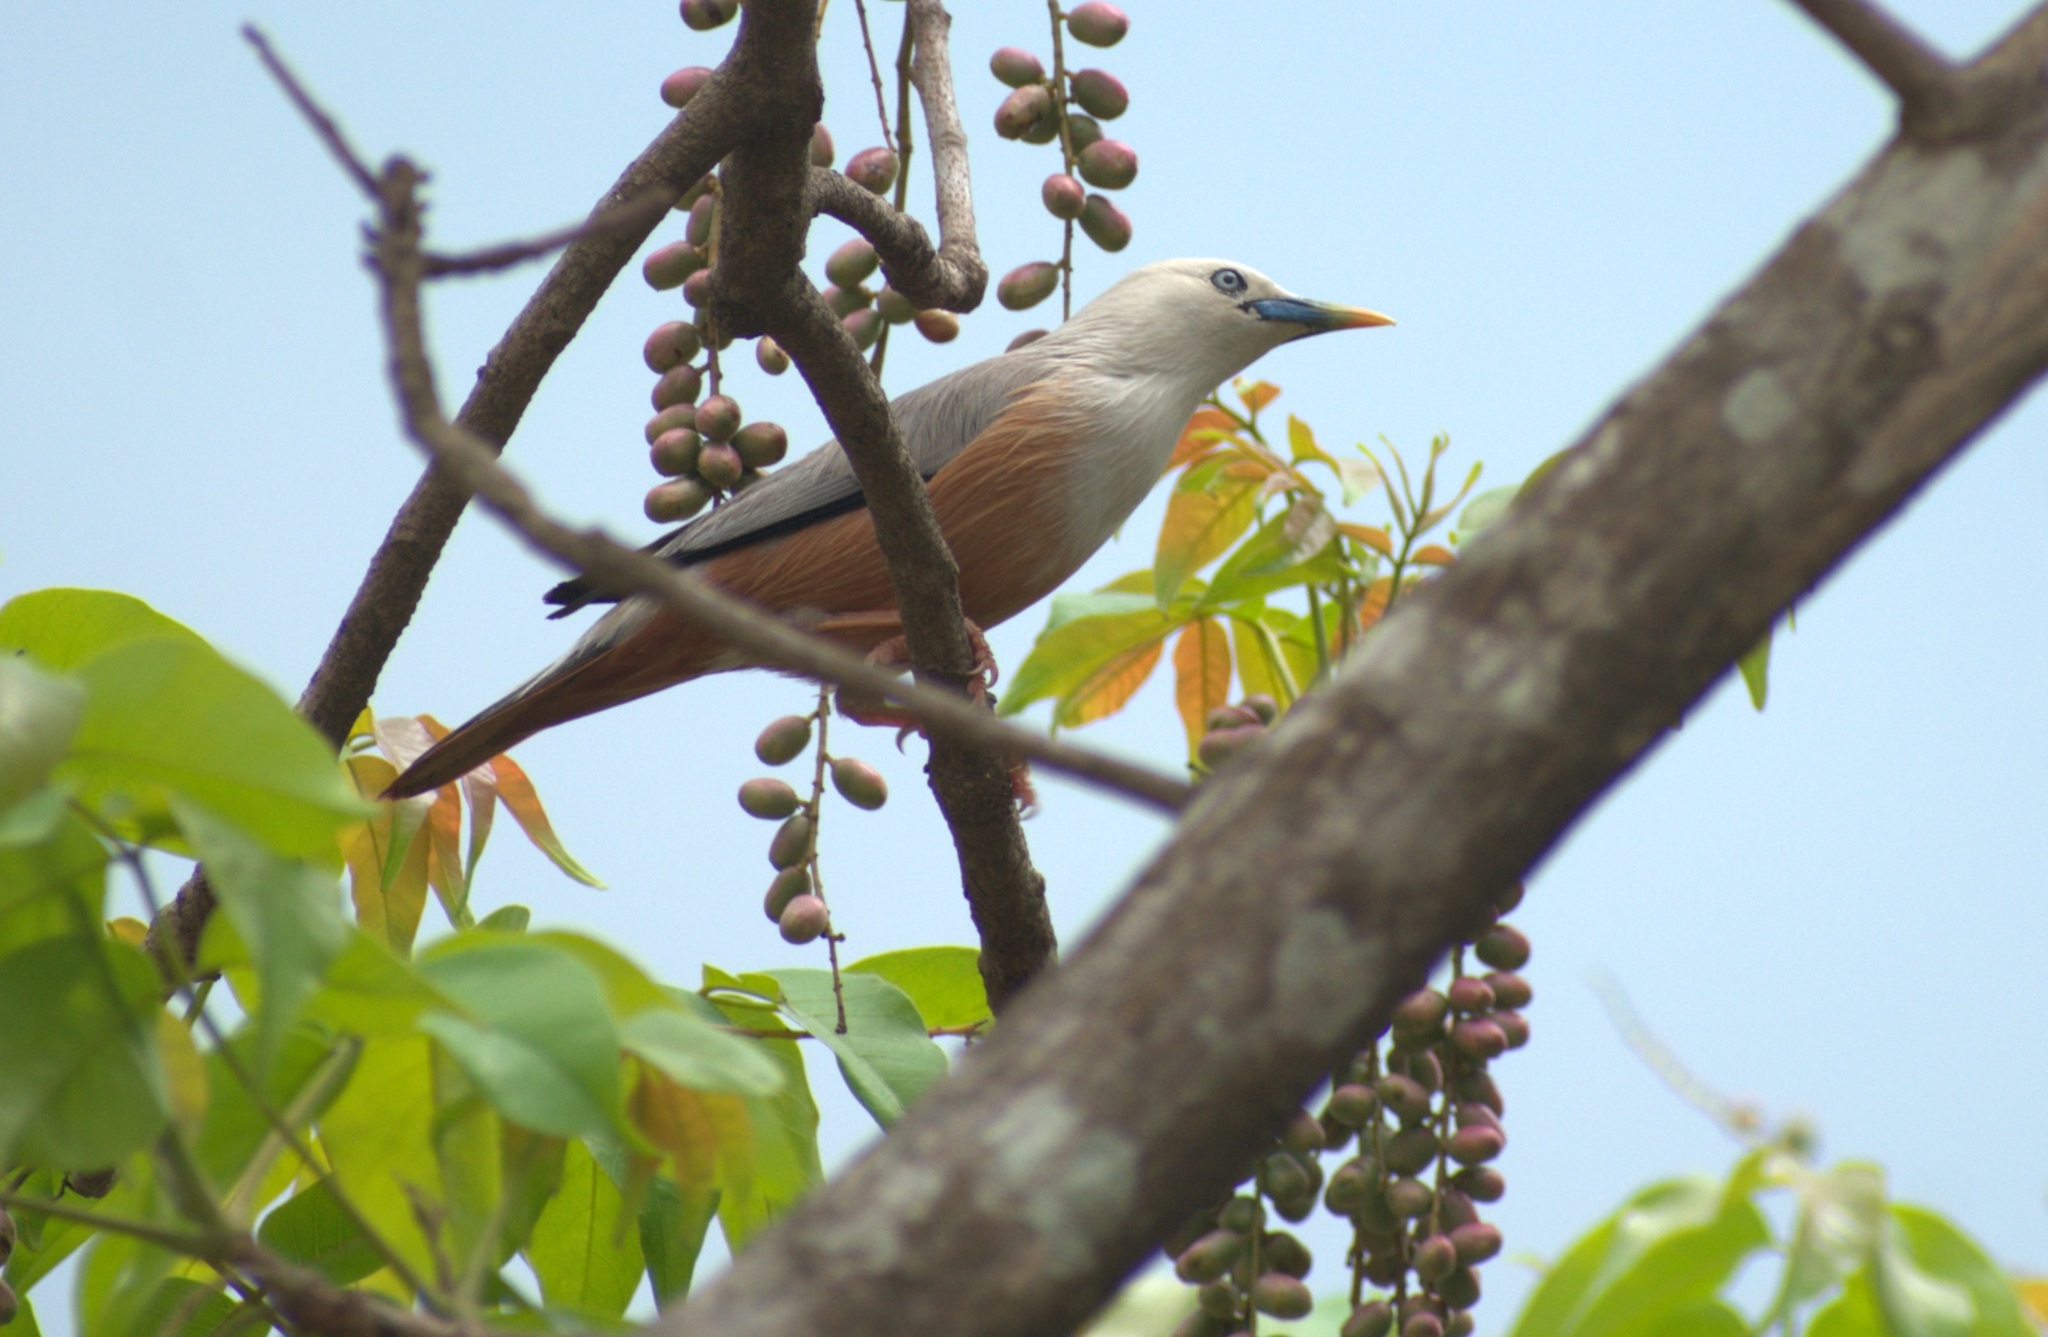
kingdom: Animalia
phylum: Chordata
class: Aves
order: Passeriformes
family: Sturnidae
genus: Sturnia
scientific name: Sturnia blythii
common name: Malabar starling
